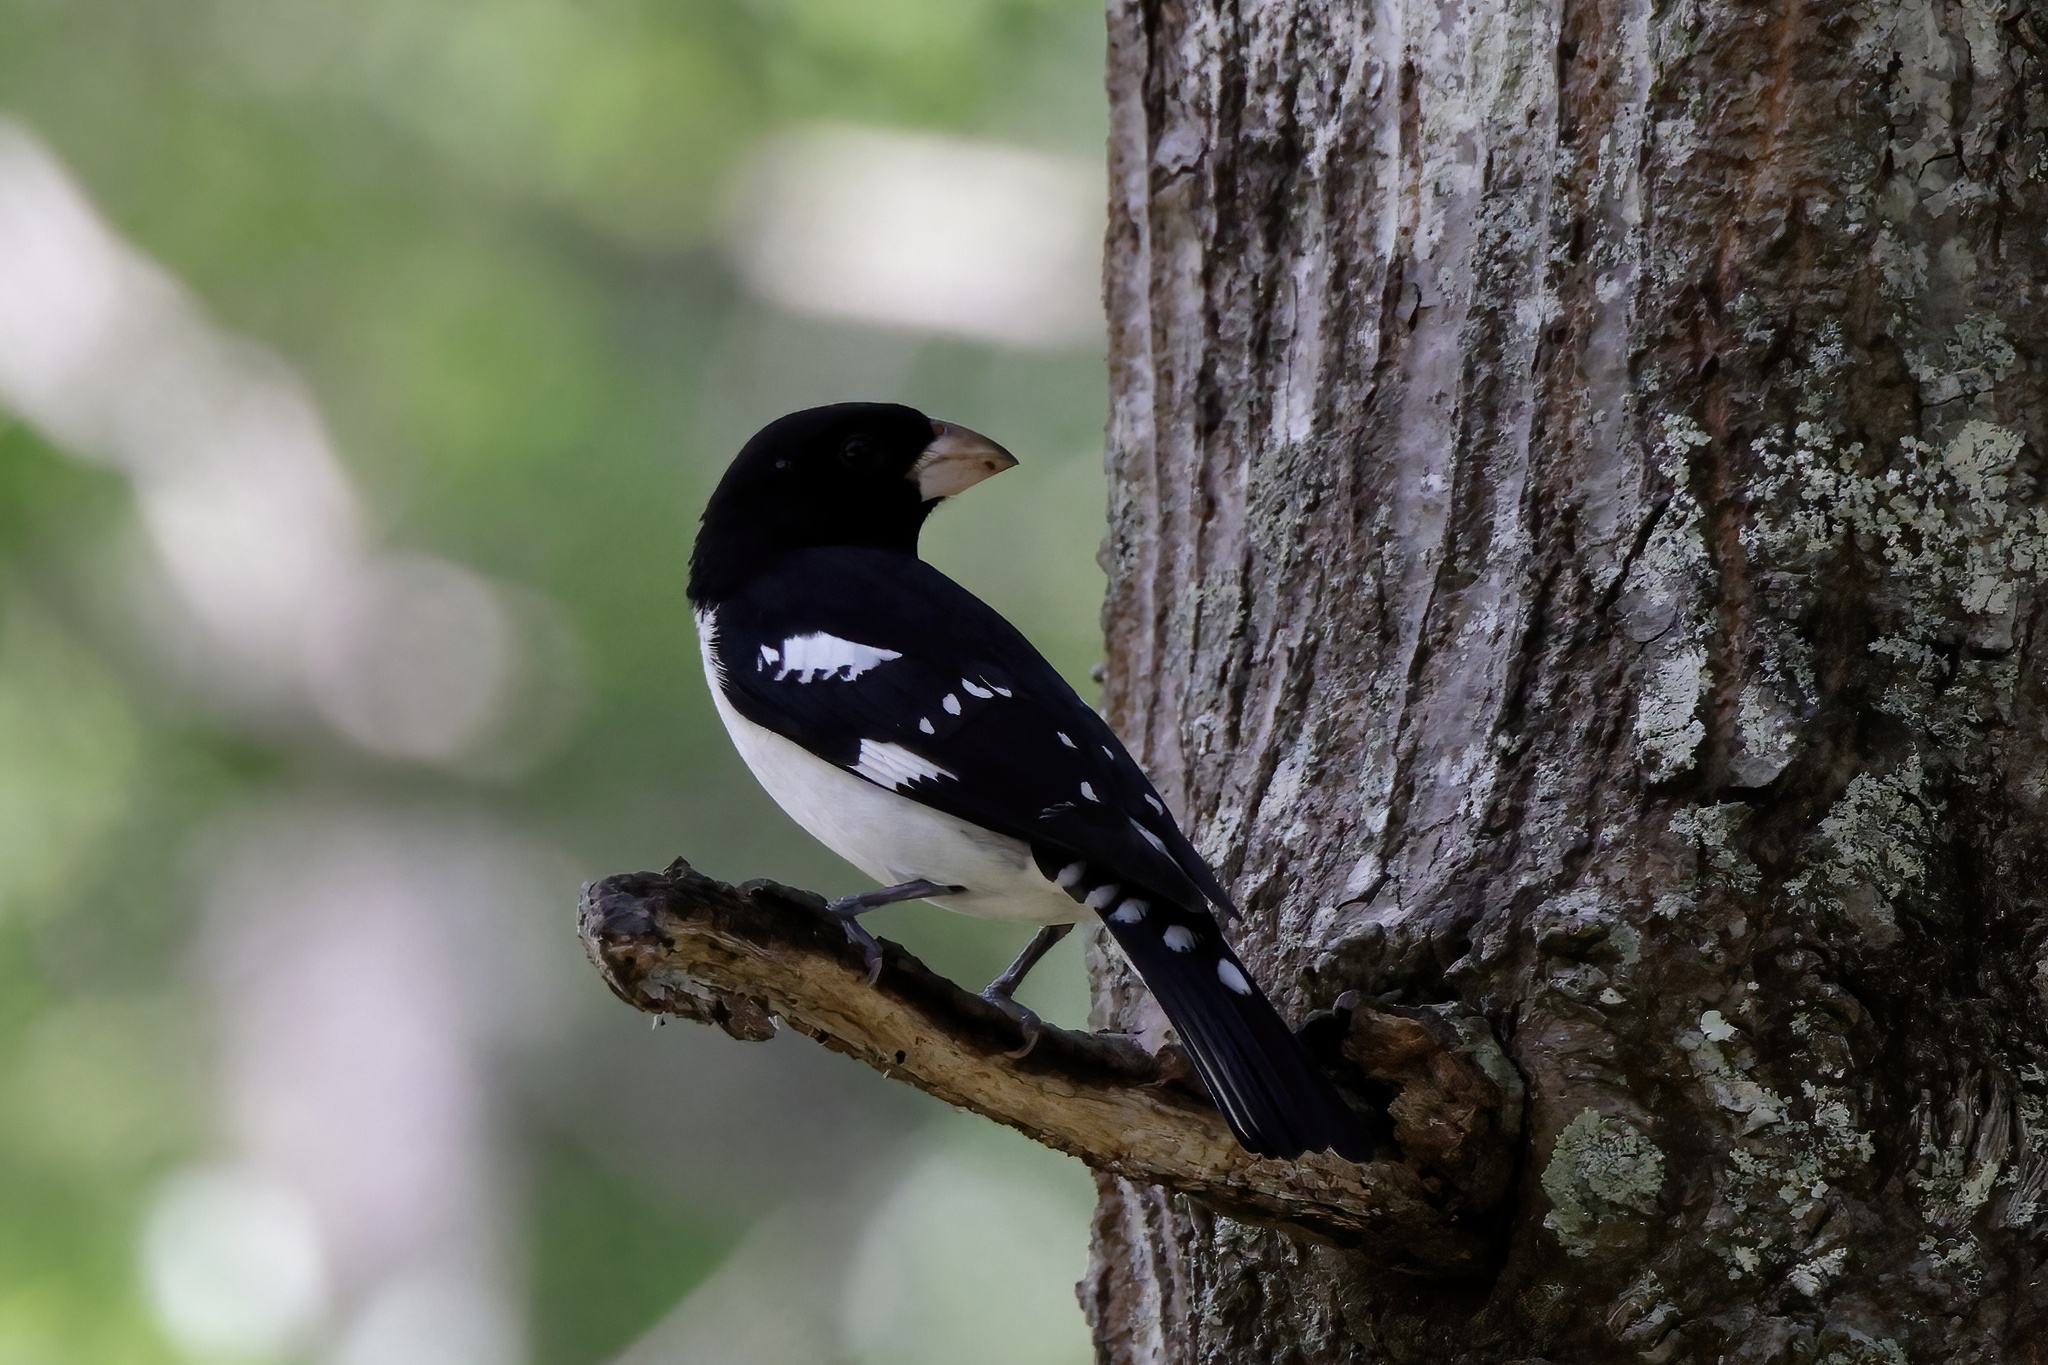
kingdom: Animalia
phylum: Chordata
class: Aves
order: Passeriformes
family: Cardinalidae
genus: Pheucticus
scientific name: Pheucticus ludovicianus
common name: Rose-breasted grosbeak
